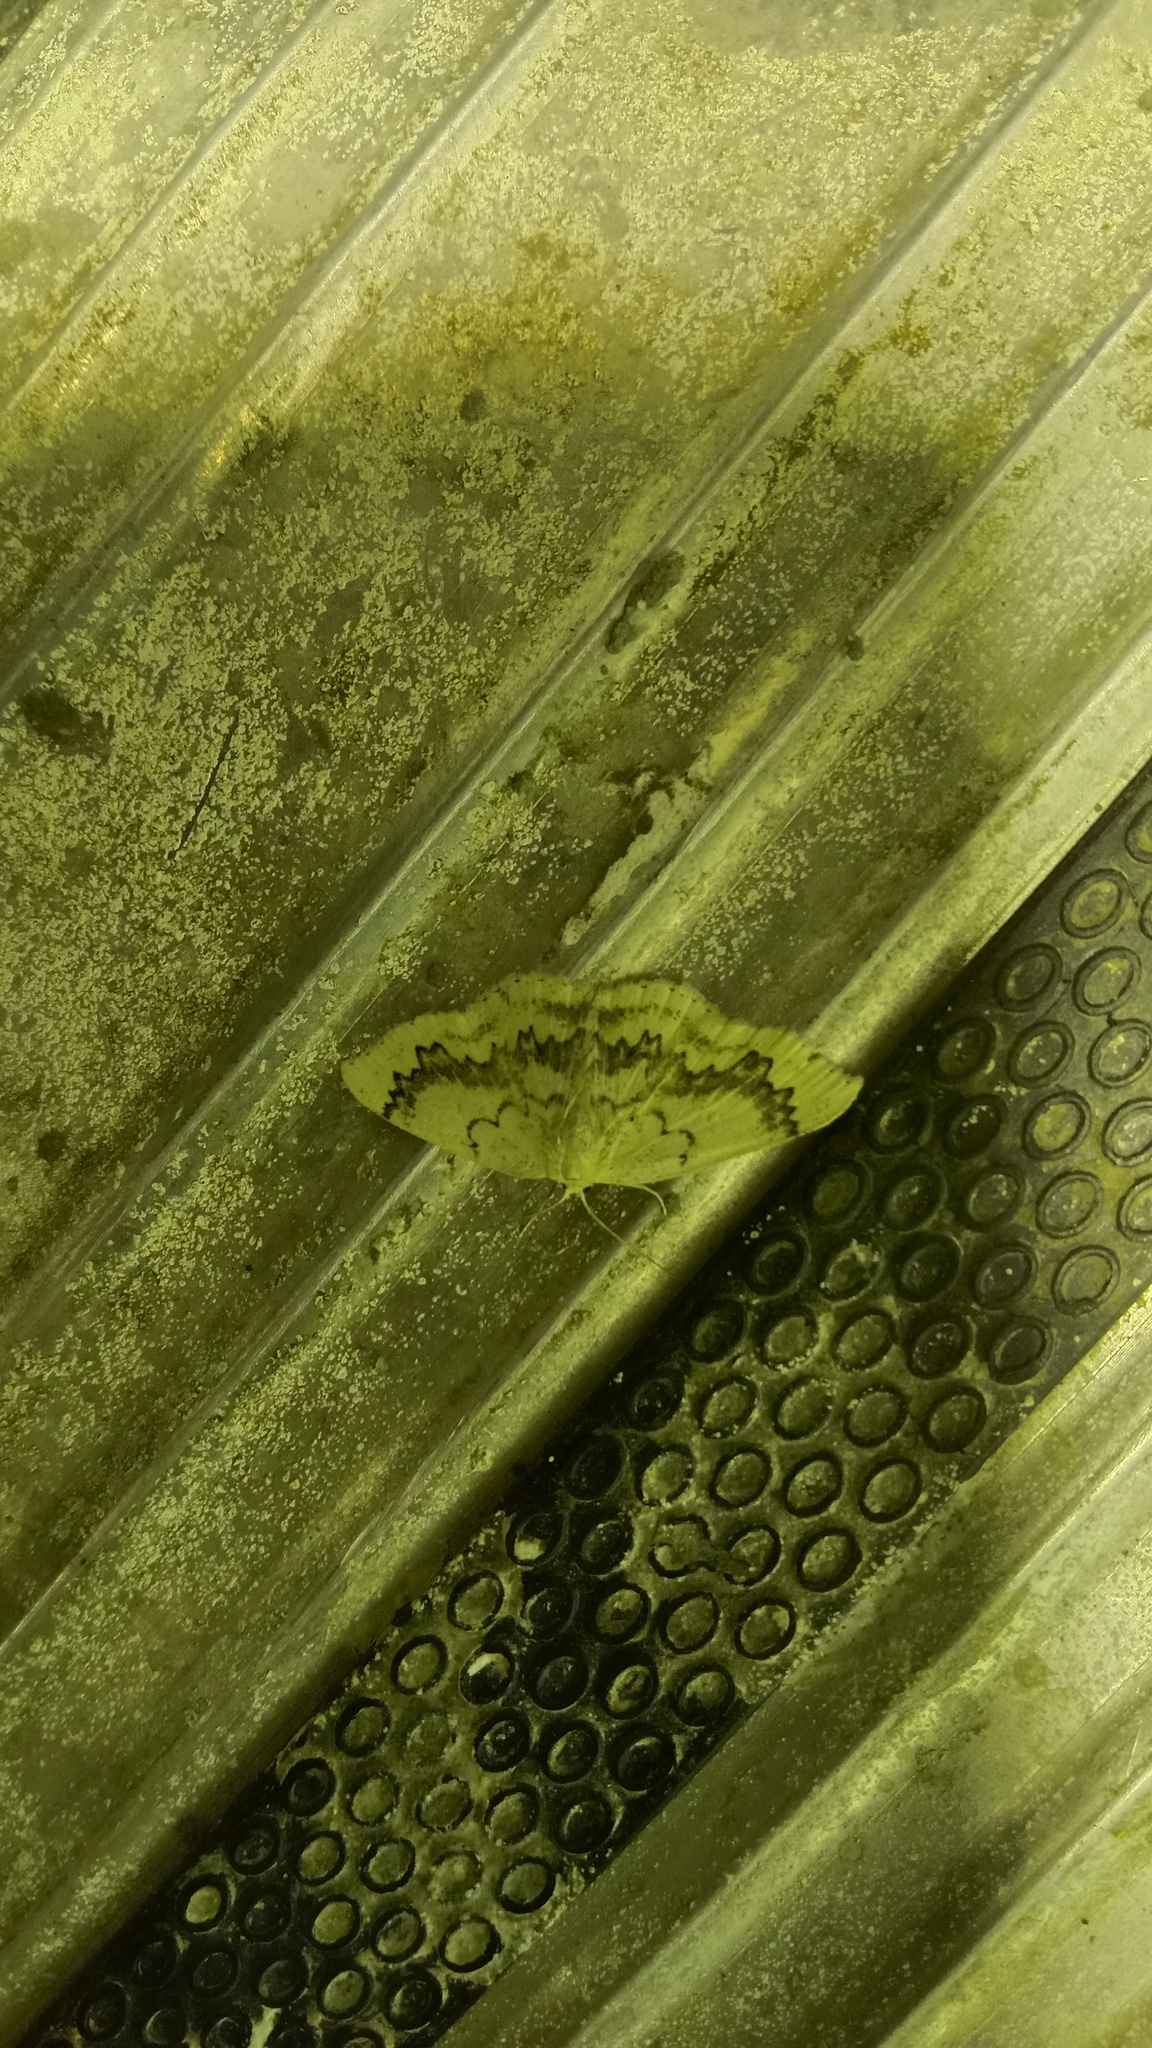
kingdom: Animalia
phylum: Arthropoda
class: Insecta
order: Lepidoptera
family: Geometridae
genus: Cyclophora
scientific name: Cyclophora annularia
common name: Mocha
